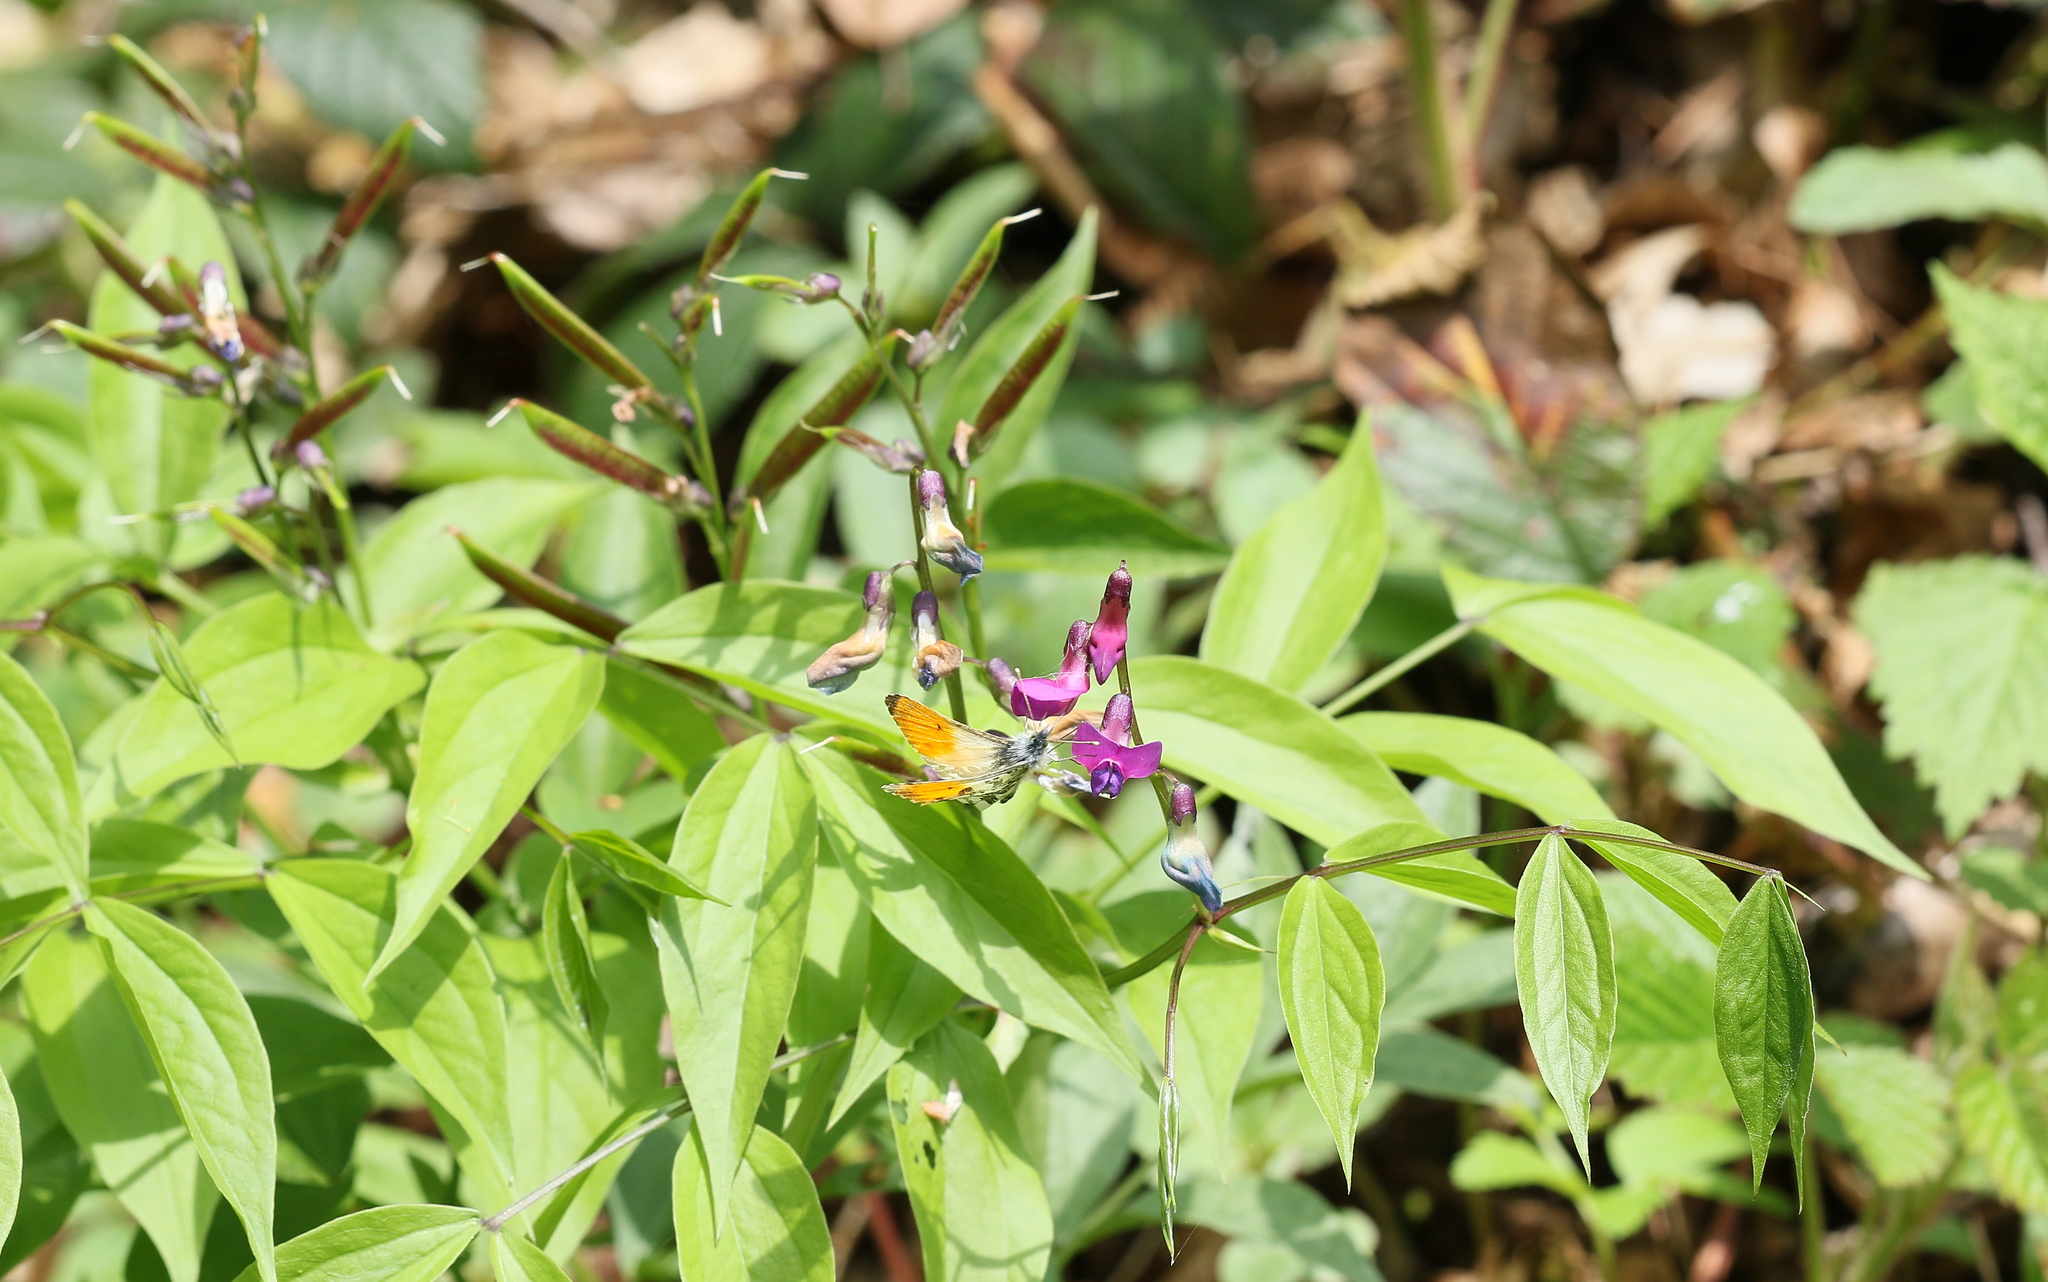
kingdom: Plantae
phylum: Tracheophyta
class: Magnoliopsida
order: Fabales
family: Fabaceae
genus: Lathyrus
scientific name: Lathyrus vernus
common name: Spring pea
